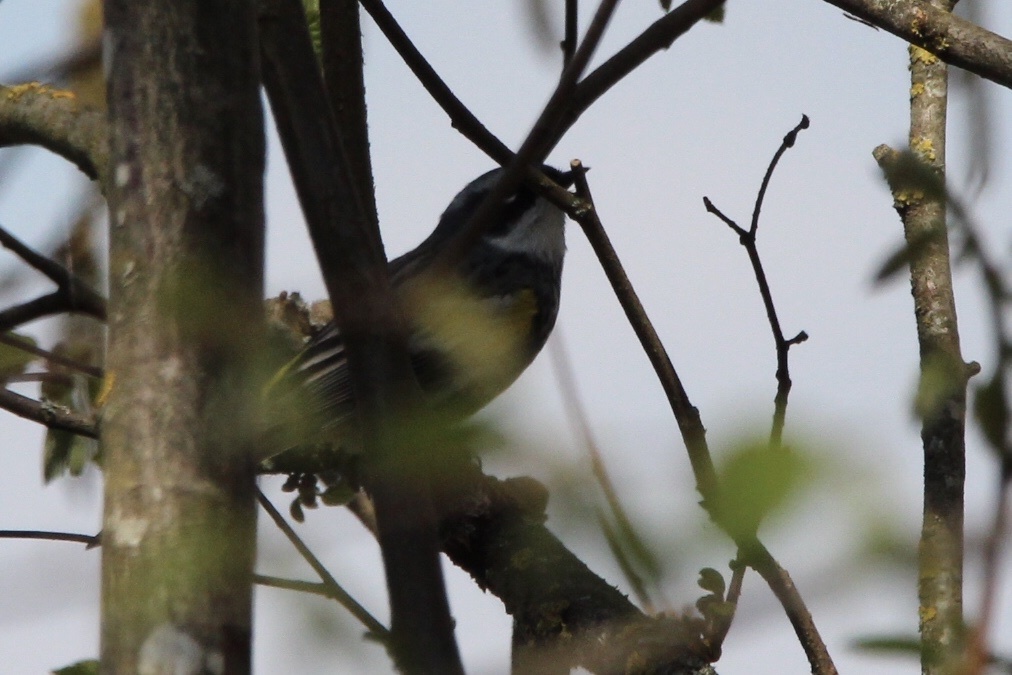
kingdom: Animalia
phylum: Chordata
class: Aves
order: Passeriformes
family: Parulidae
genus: Setophaga
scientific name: Setophaga coronata
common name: Myrtle warbler
